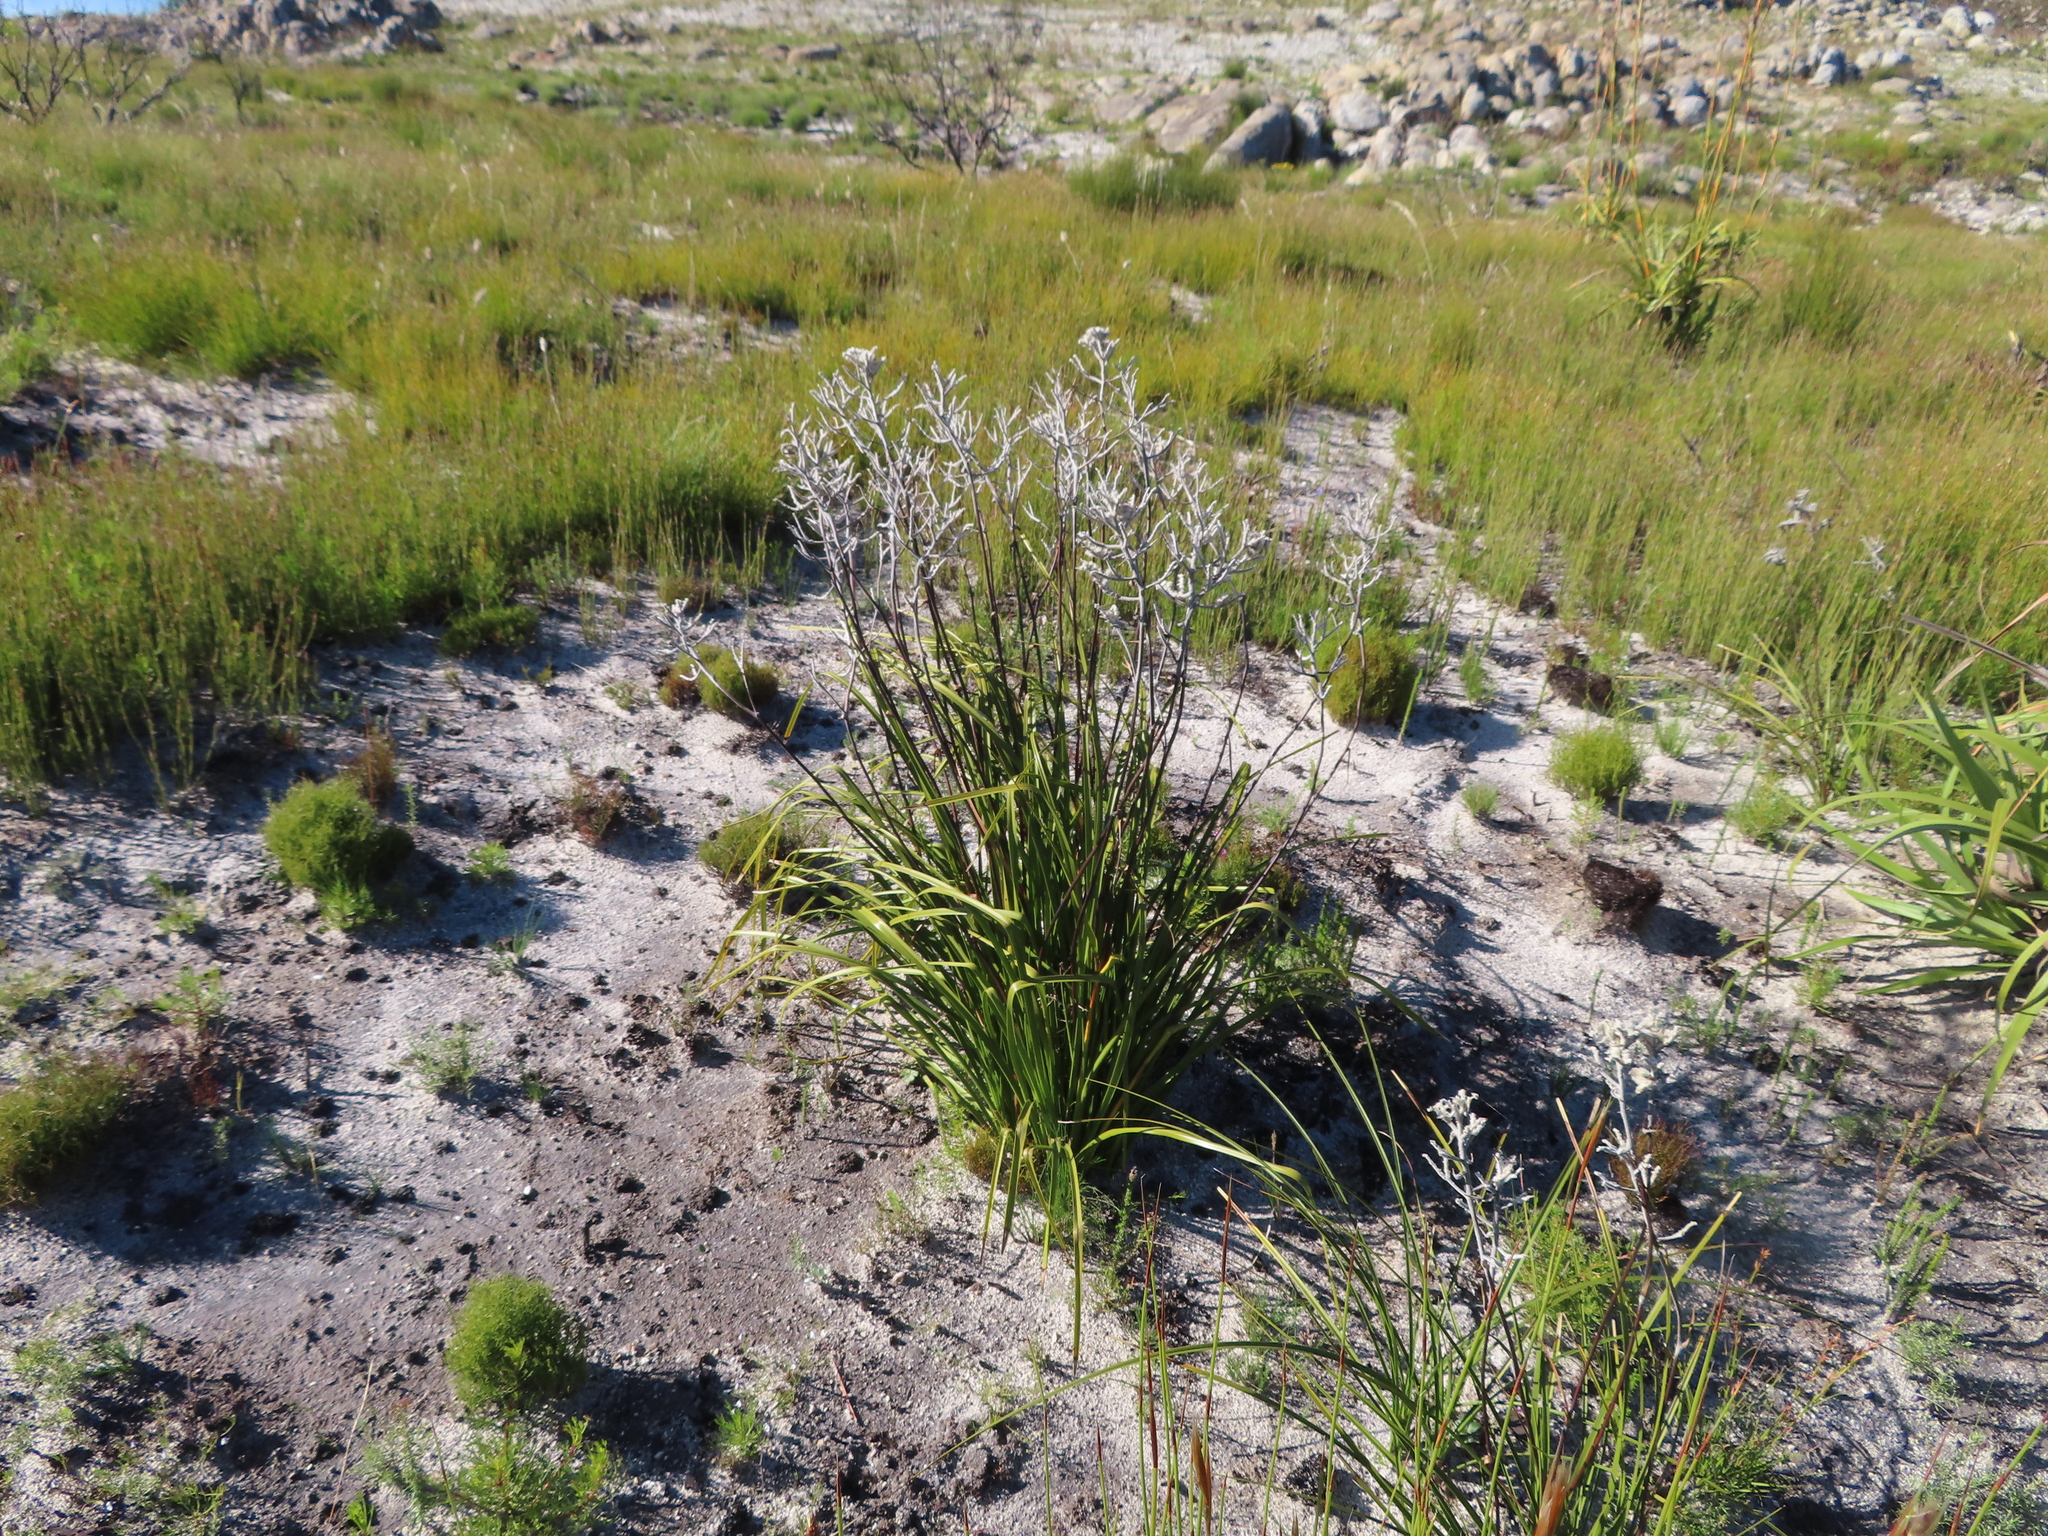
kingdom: Plantae
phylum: Tracheophyta
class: Liliopsida
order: Asparagales
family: Lanariaceae
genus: Lanaria
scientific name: Lanaria lanata
